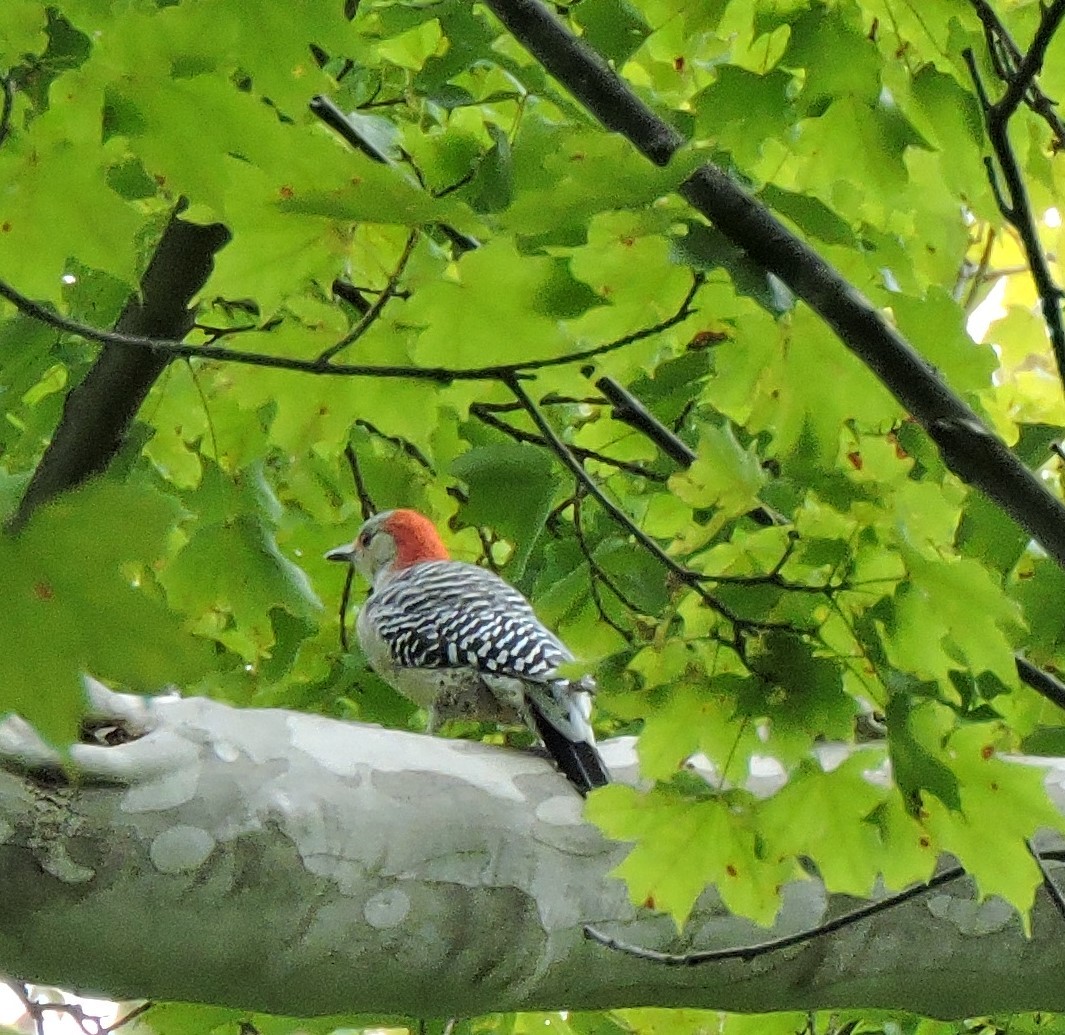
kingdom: Animalia
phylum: Chordata
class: Aves
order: Piciformes
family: Picidae
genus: Melanerpes
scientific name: Melanerpes carolinus
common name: Red-bellied woodpecker
